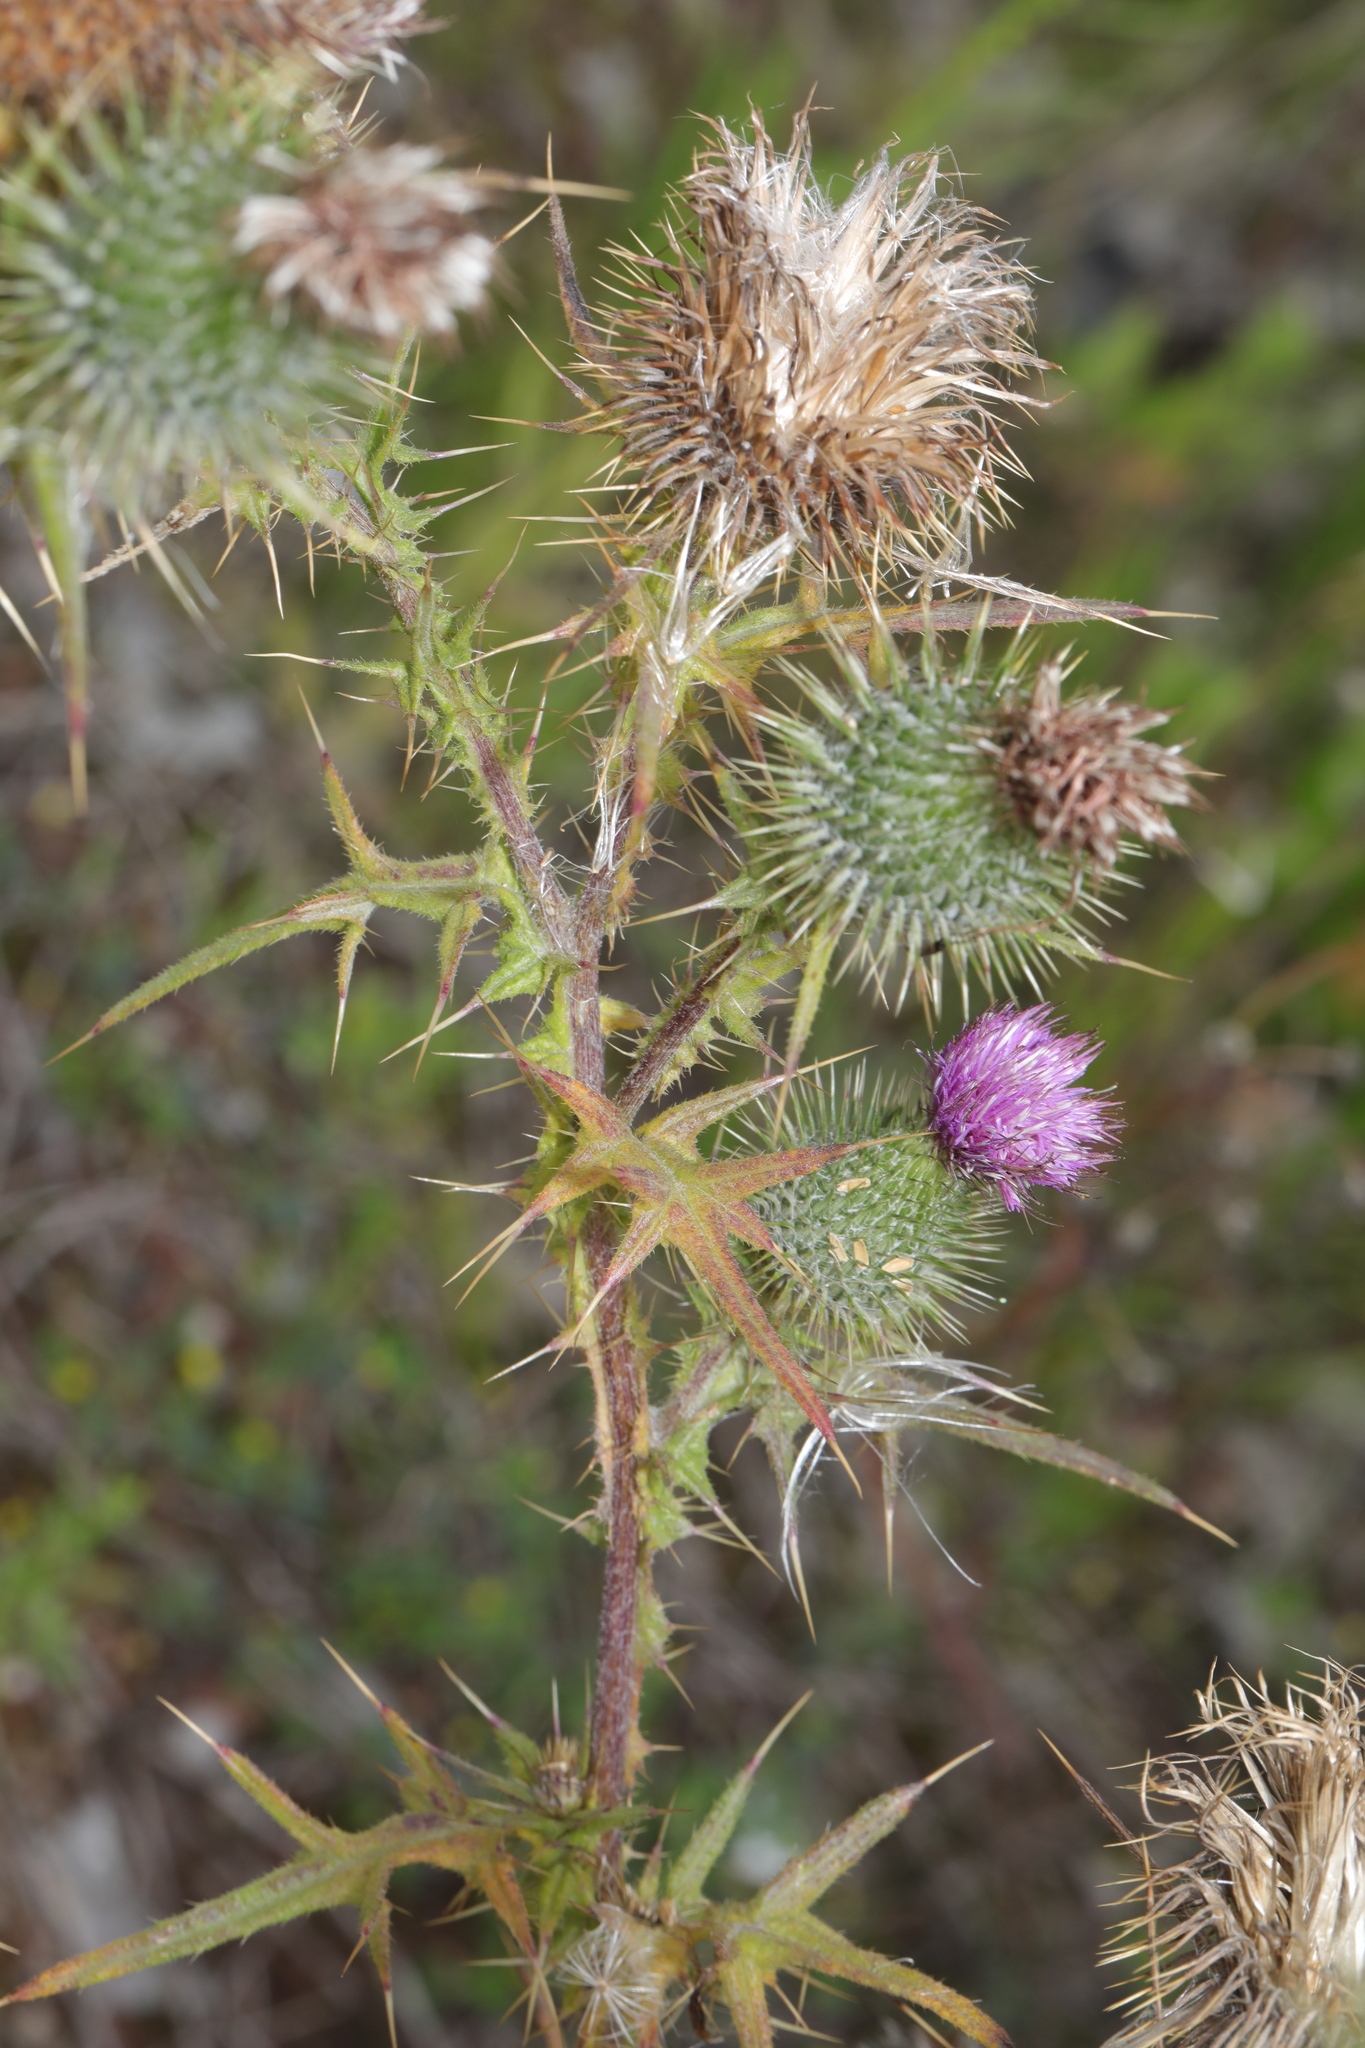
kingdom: Plantae
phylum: Tracheophyta
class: Magnoliopsida
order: Asterales
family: Asteraceae
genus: Cirsium
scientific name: Cirsium vulgare
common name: Bull thistle
